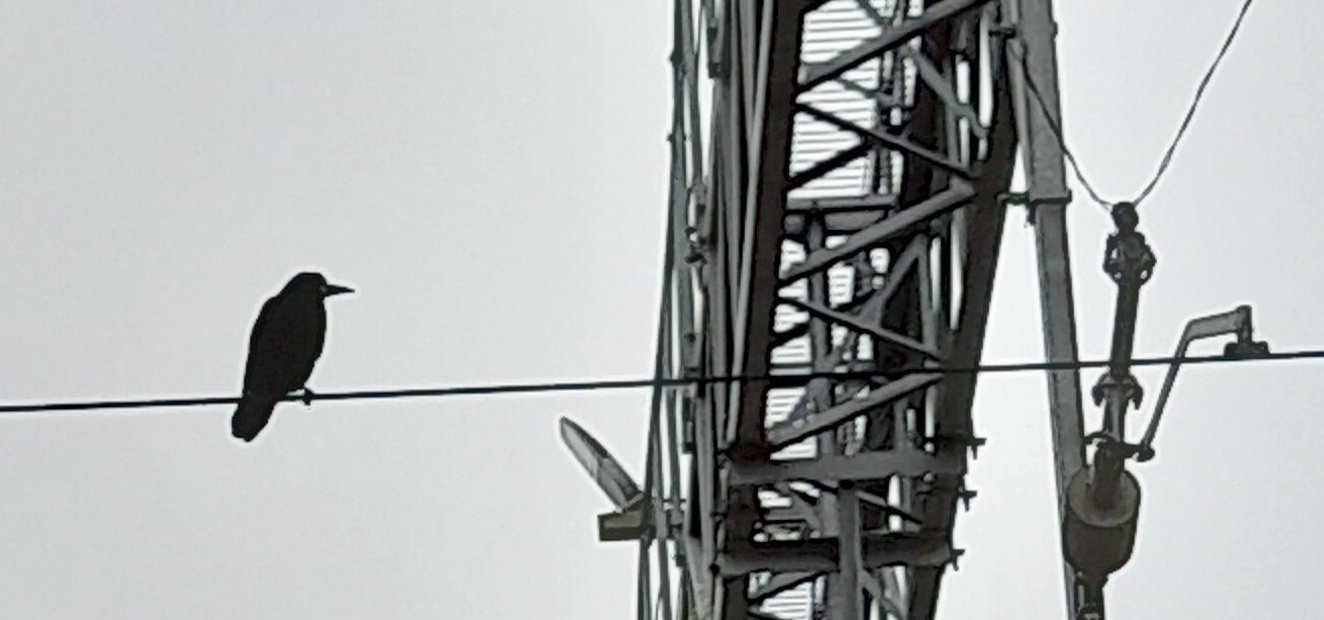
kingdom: Animalia
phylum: Chordata
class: Aves
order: Passeriformes
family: Corvidae
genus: Corvus
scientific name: Corvus frugilegus
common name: Rook
